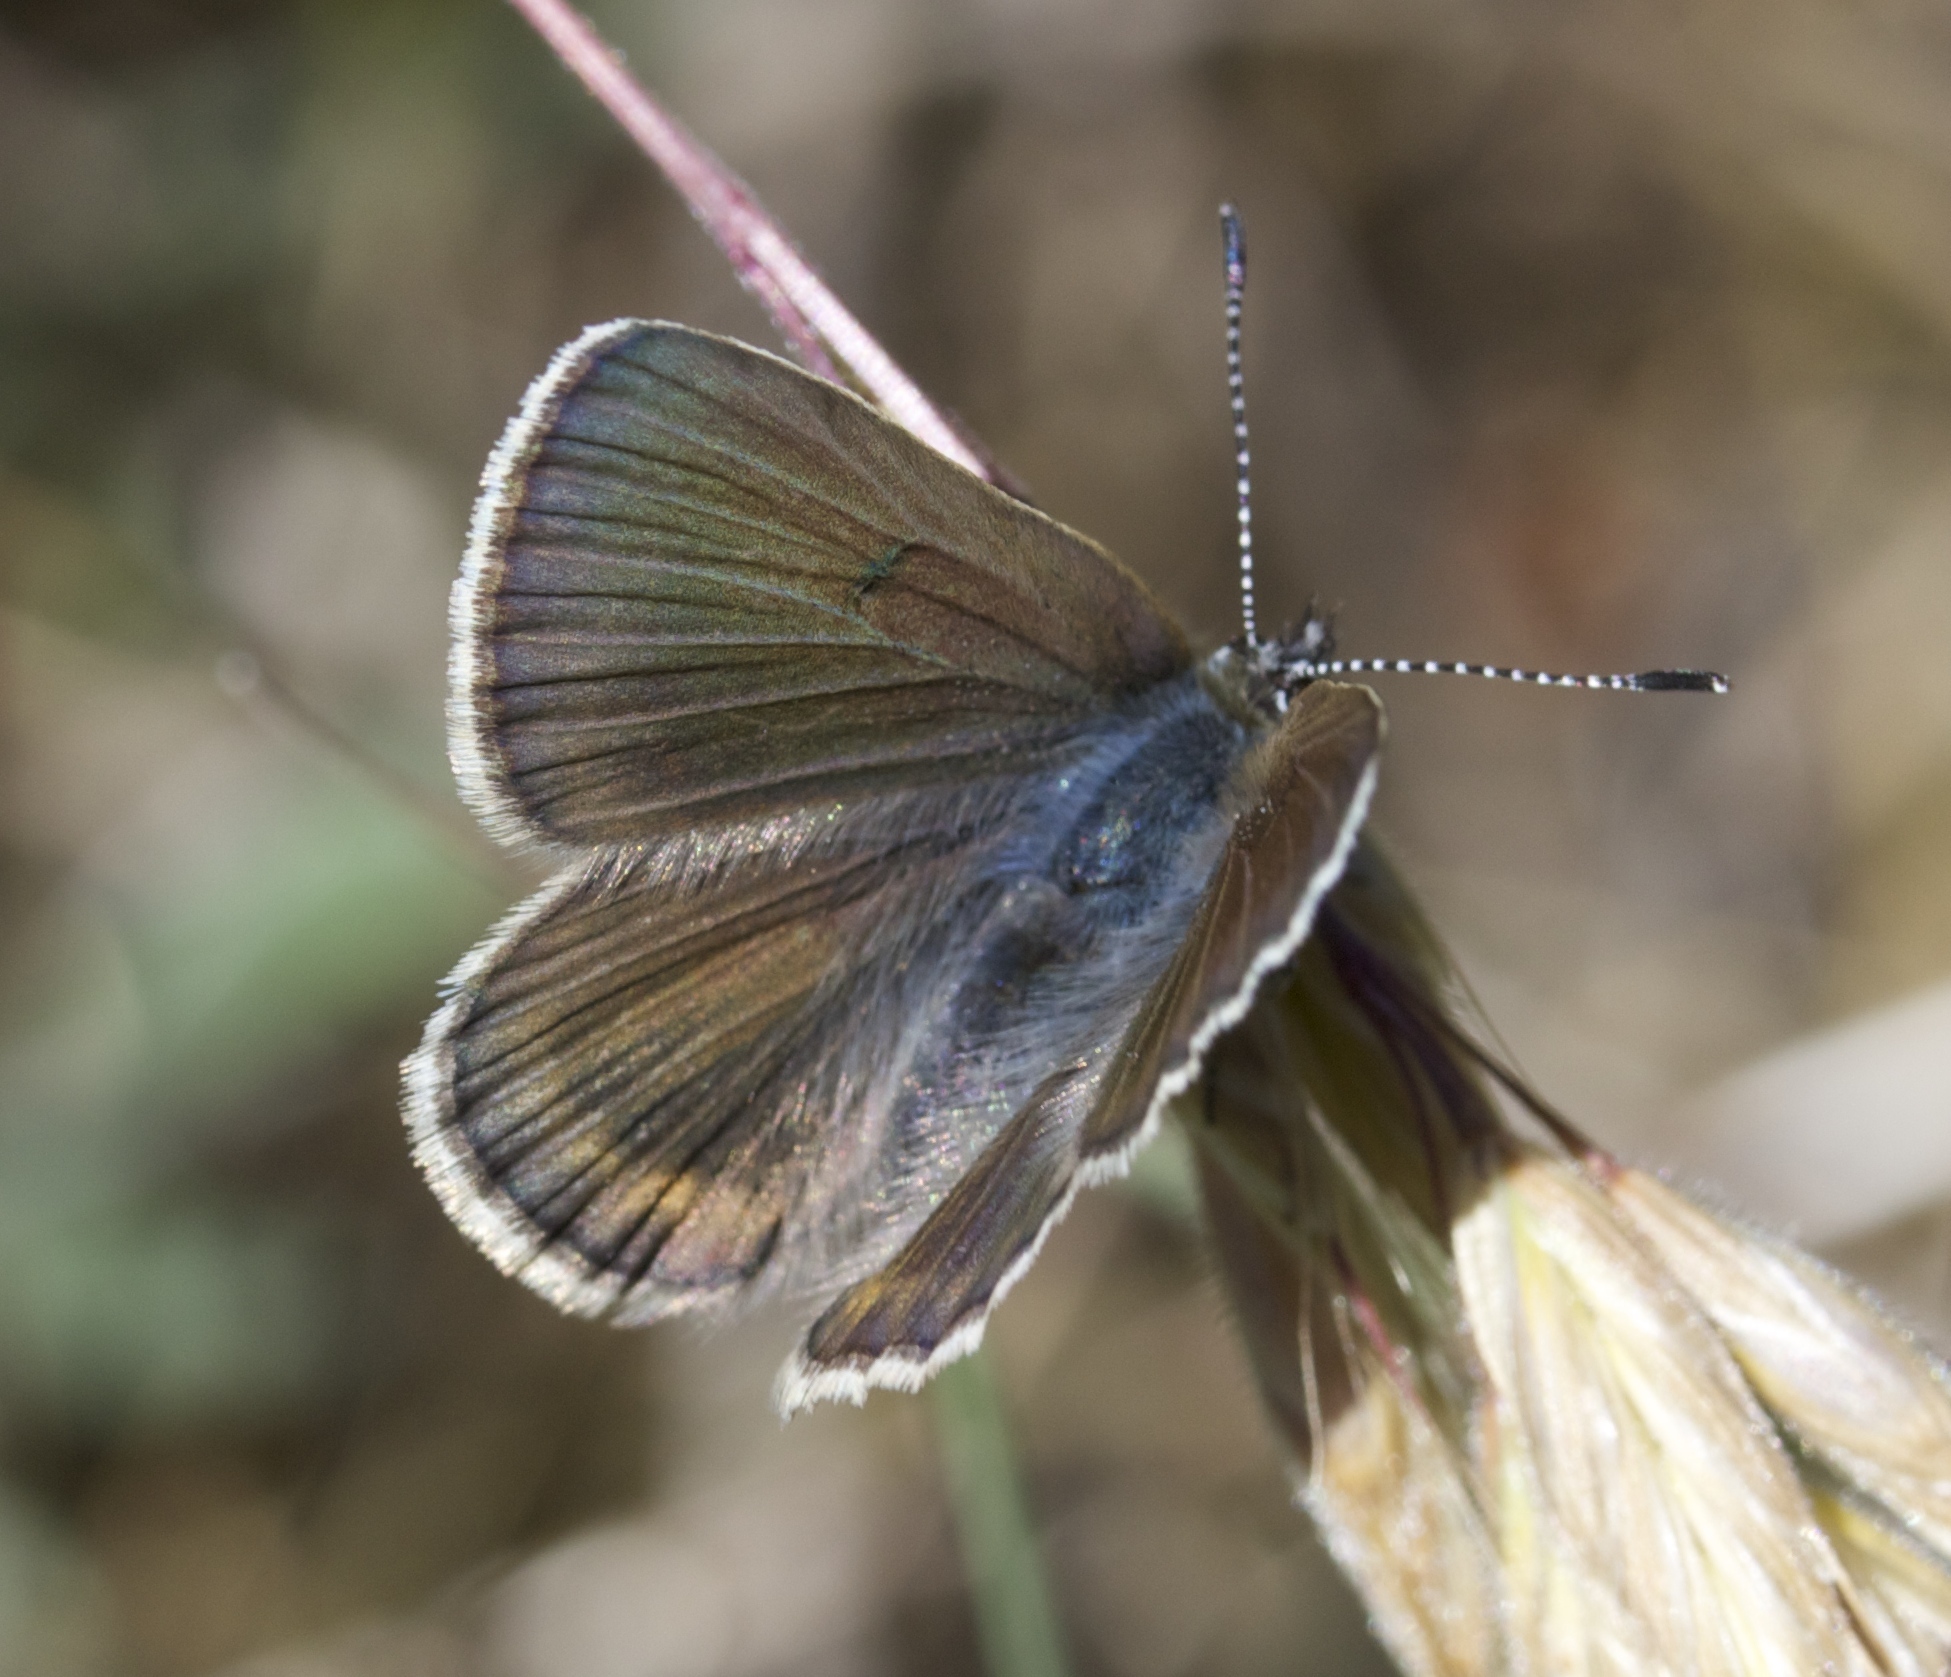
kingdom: Animalia
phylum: Arthropoda
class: Insecta
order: Lepidoptera
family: Lycaenidae
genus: Icaricia
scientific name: Icaricia icarioides
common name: Boisduval's blue
